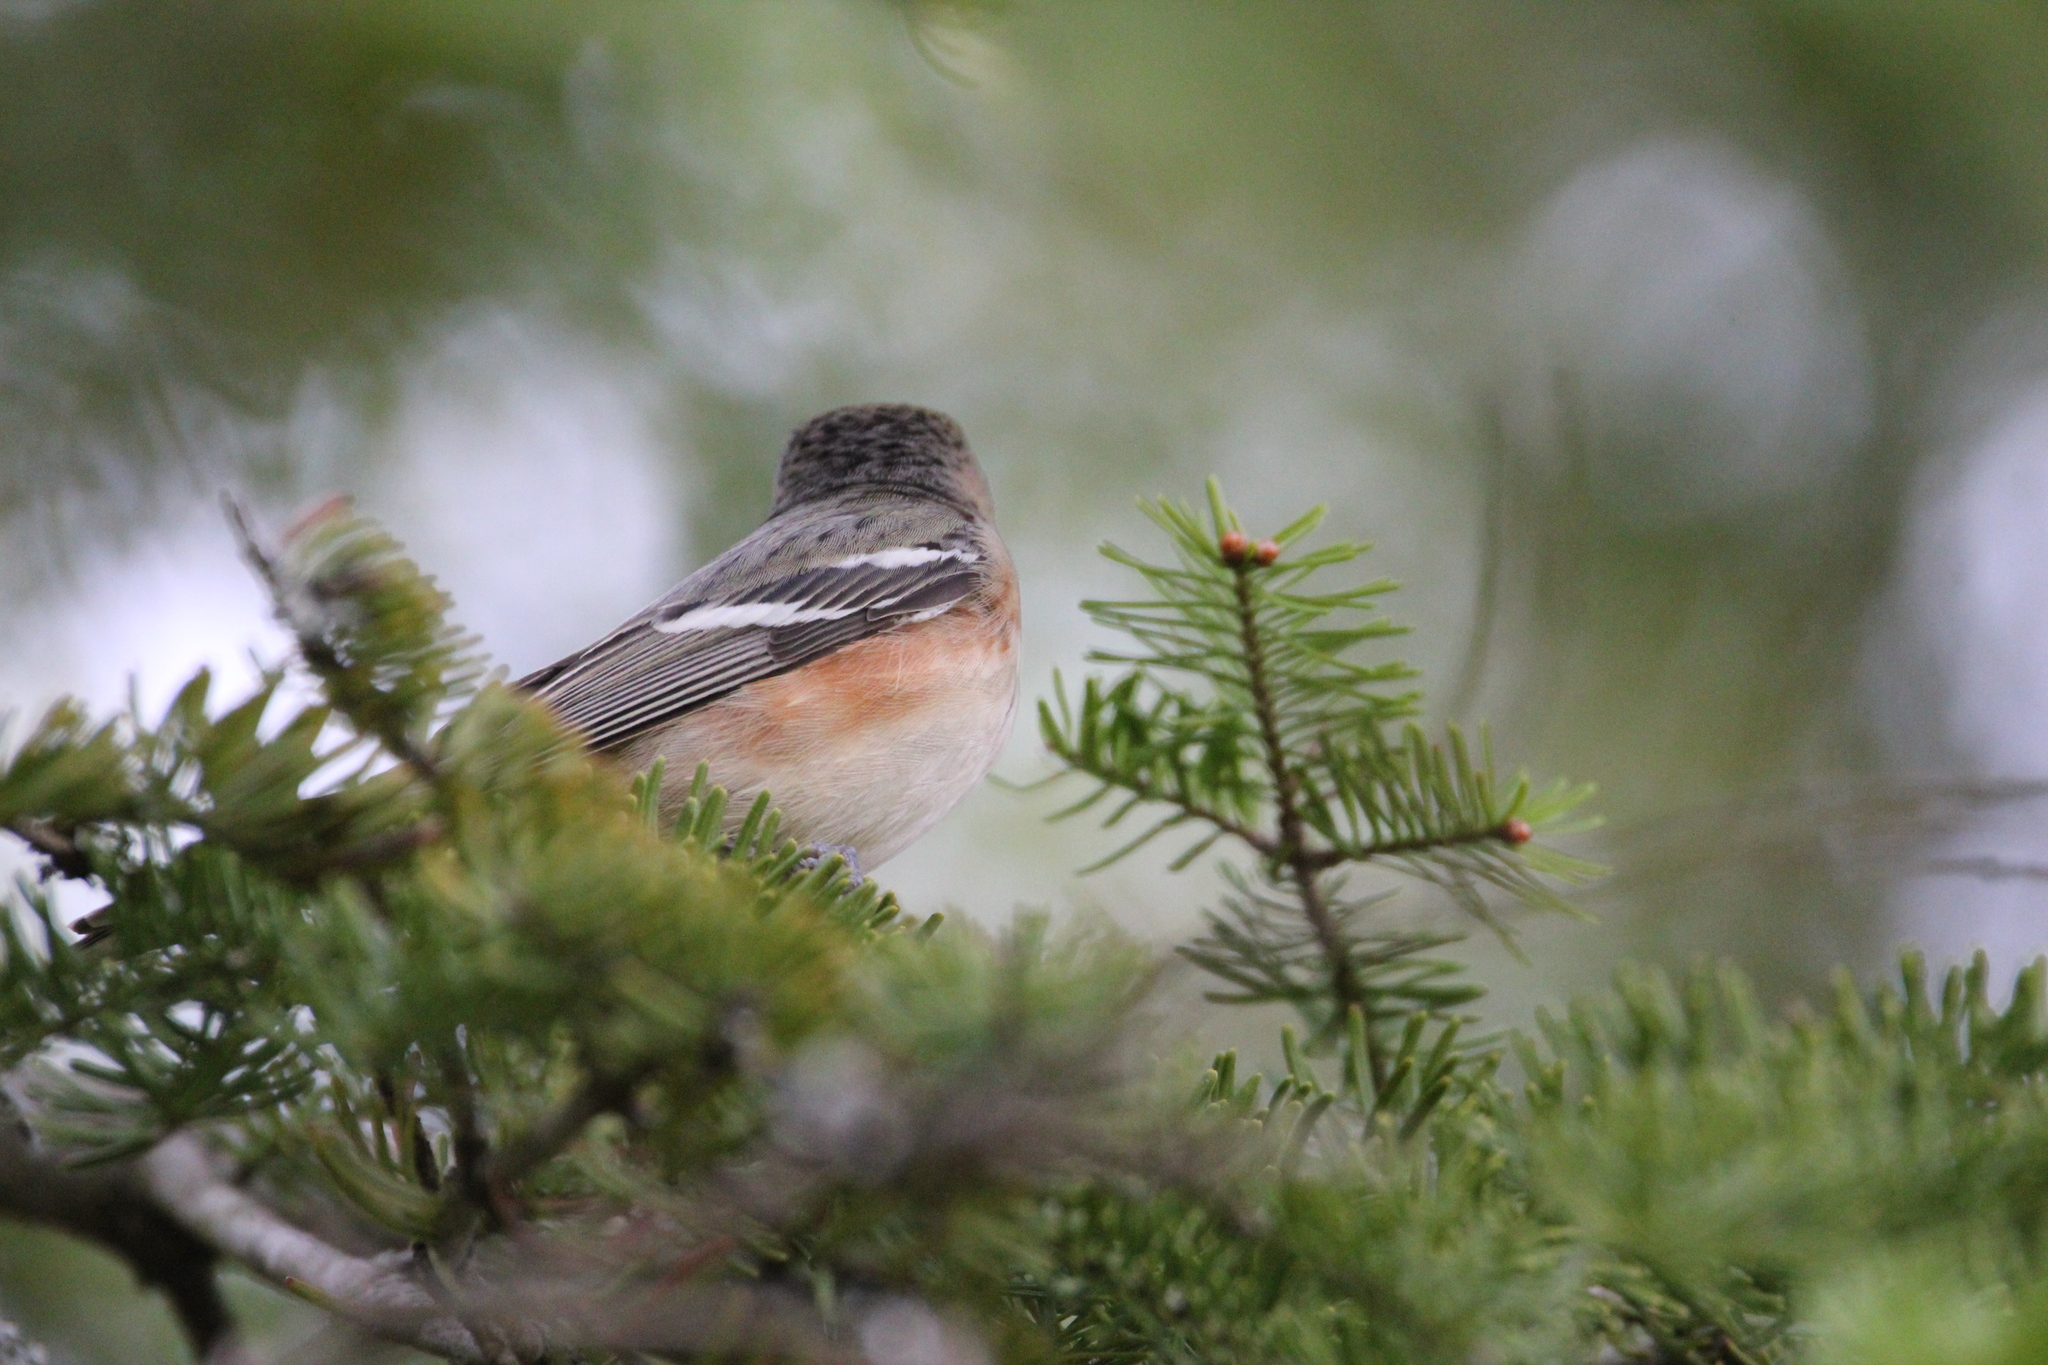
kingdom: Animalia
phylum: Chordata
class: Aves
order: Passeriformes
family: Parulidae
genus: Setophaga
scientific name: Setophaga castanea
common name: Bay-breasted warbler
